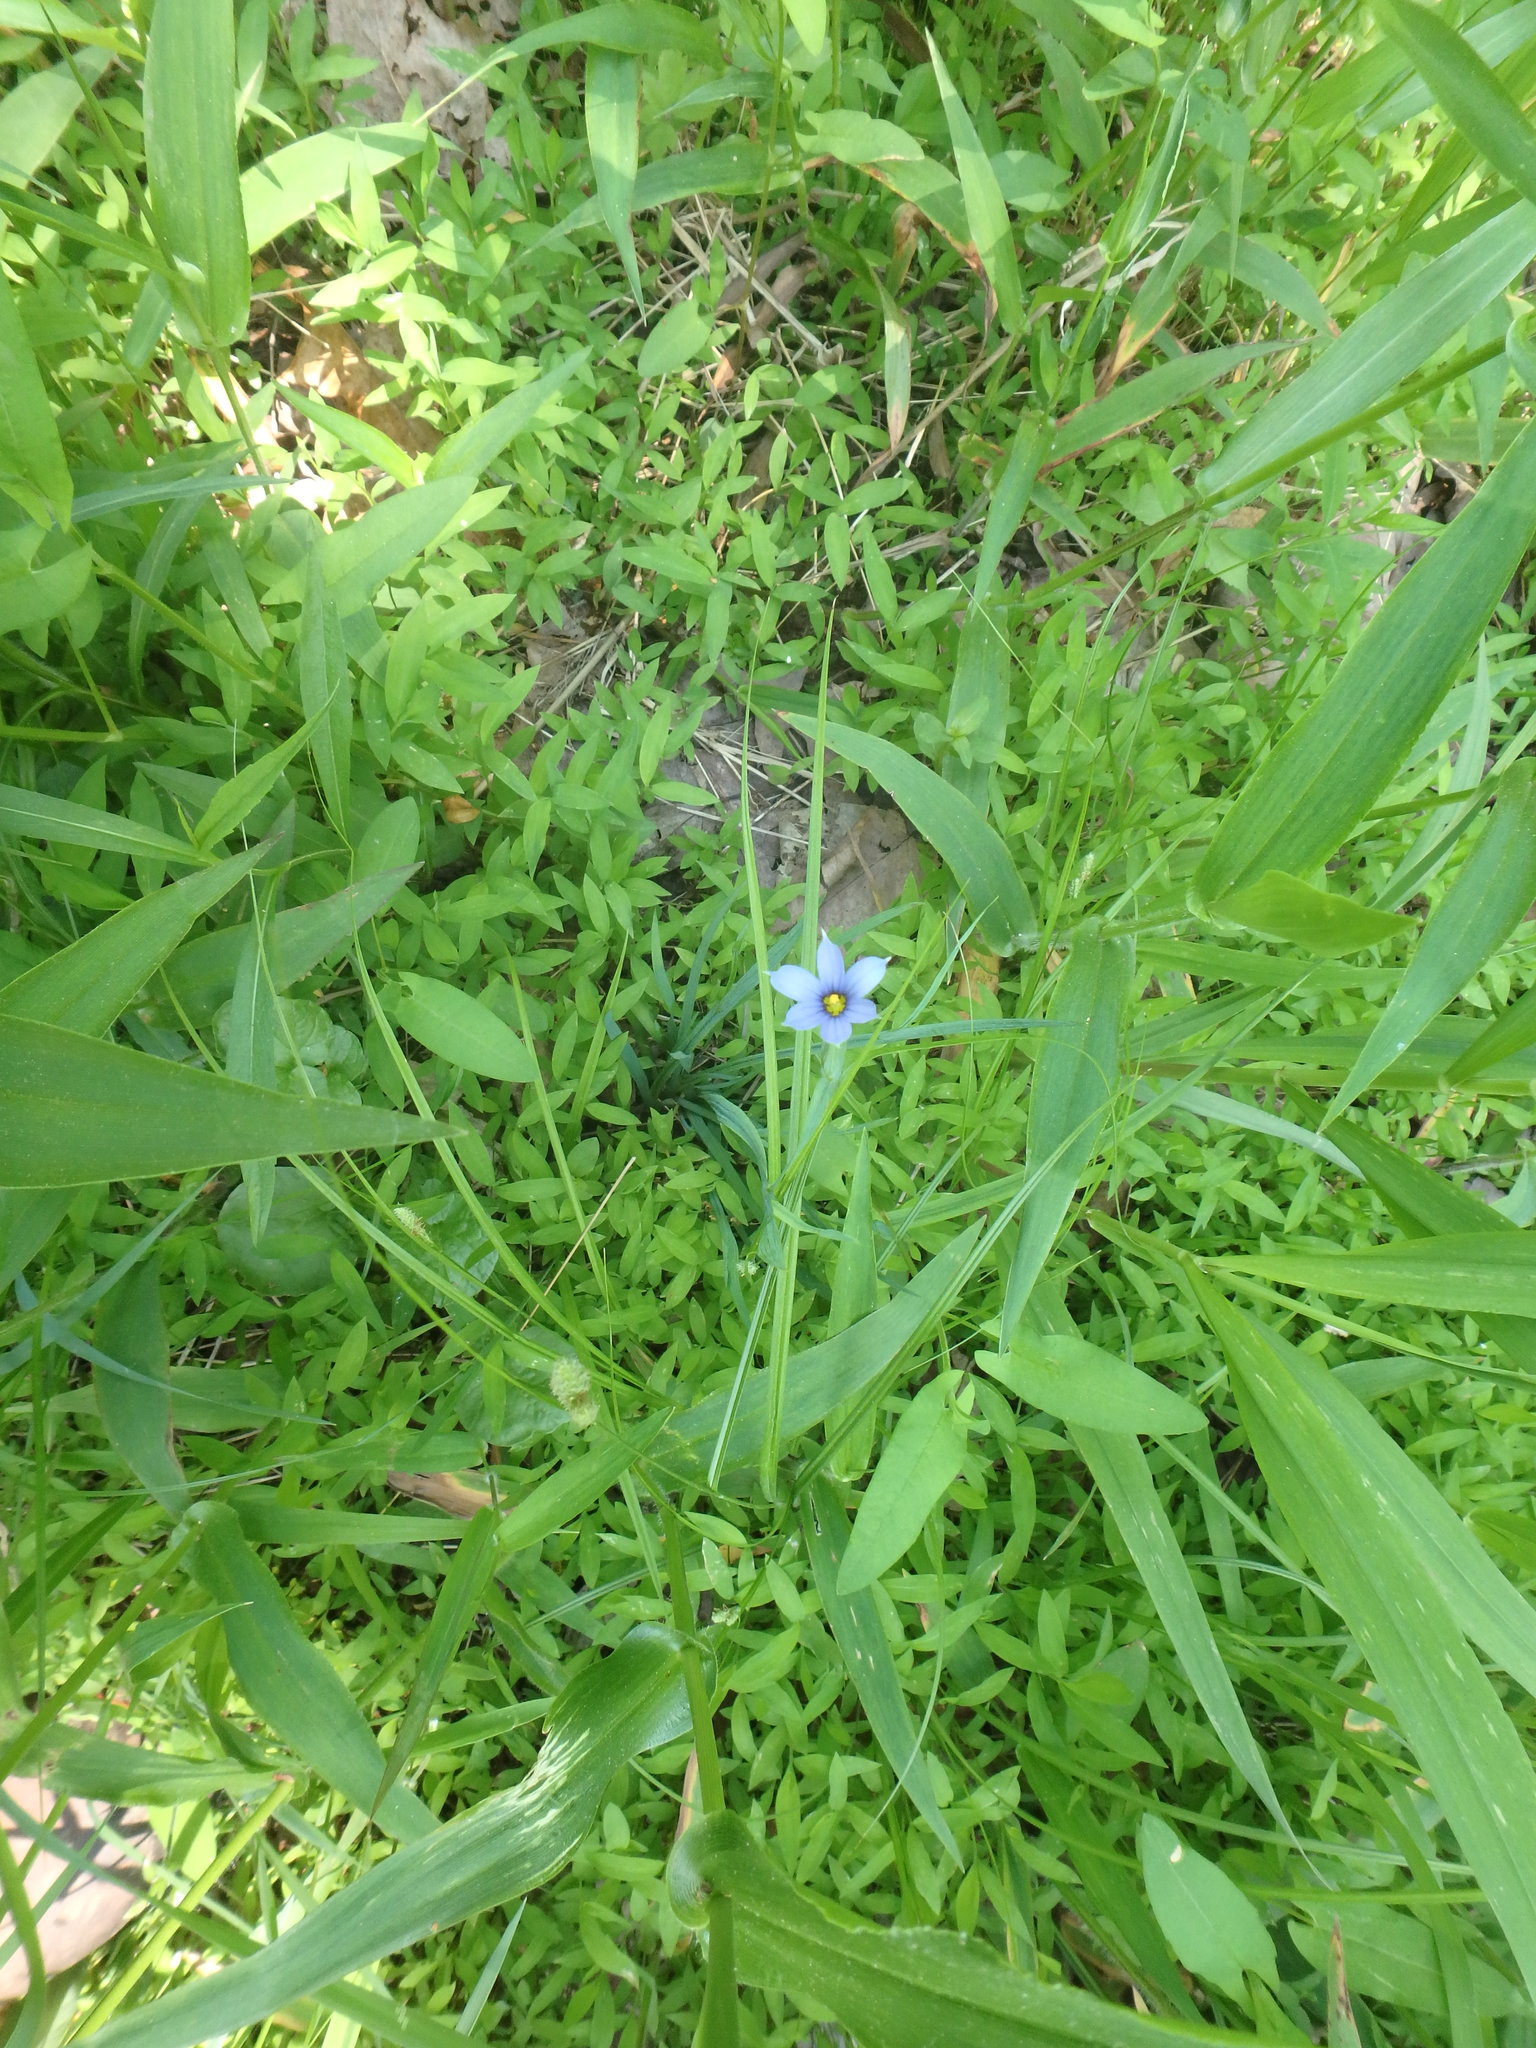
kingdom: Plantae
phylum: Tracheophyta
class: Liliopsida
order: Asparagales
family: Iridaceae
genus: Sisyrinchium
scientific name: Sisyrinchium angustifolium
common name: Narrow-leaf blue-eyed-grass
